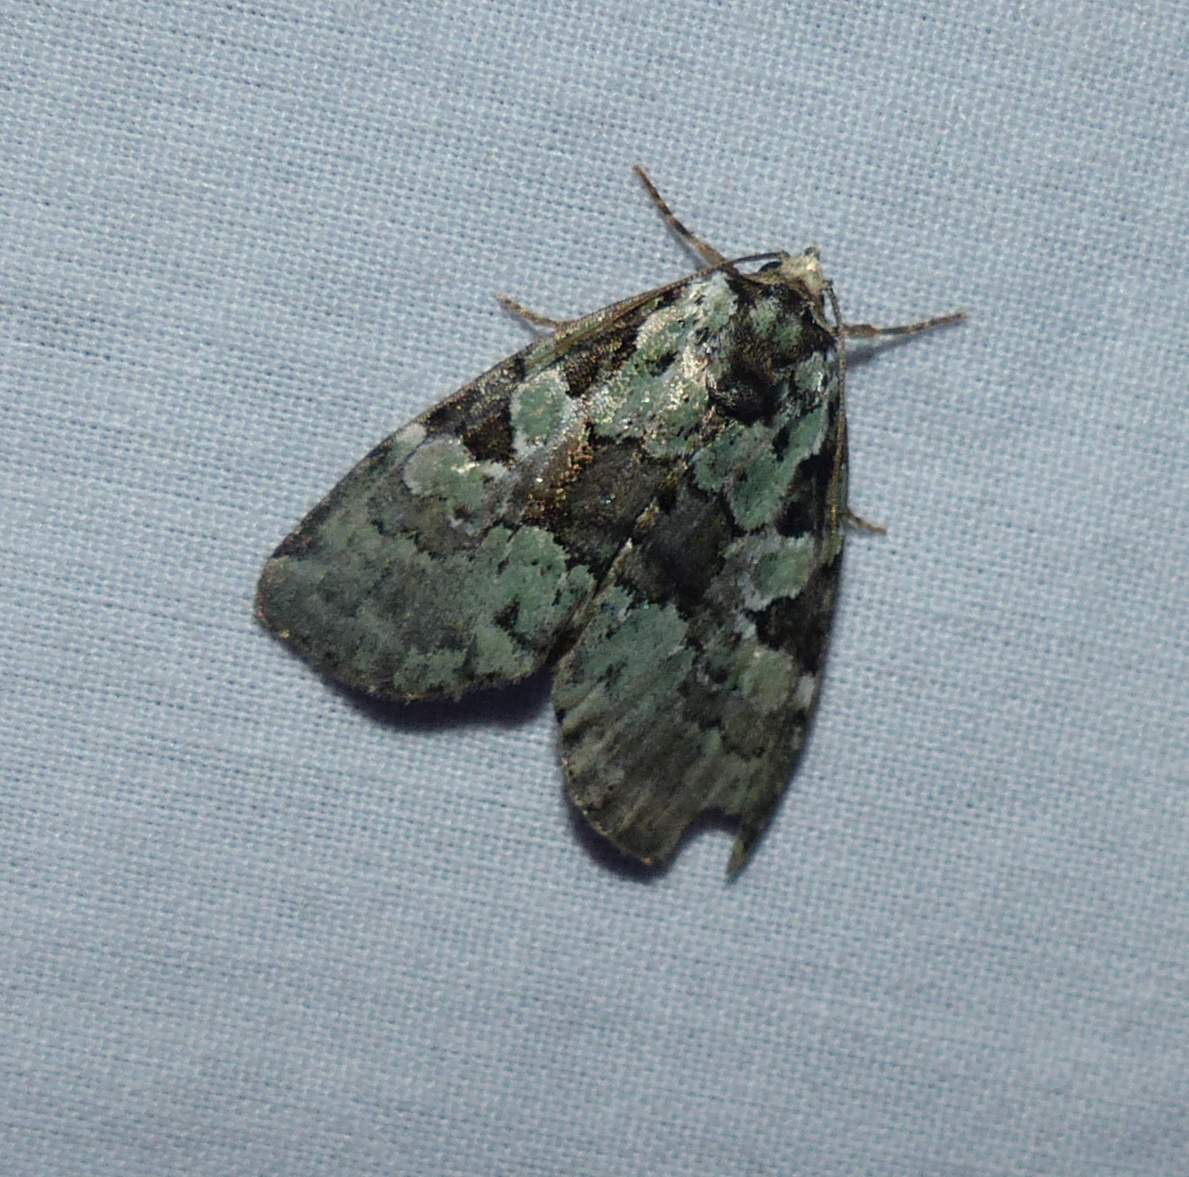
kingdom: Animalia
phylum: Arthropoda
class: Insecta
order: Lepidoptera
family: Noctuidae
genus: Leuconycta
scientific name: Leuconycta lepidula
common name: Marbled-green leuconycta moth
